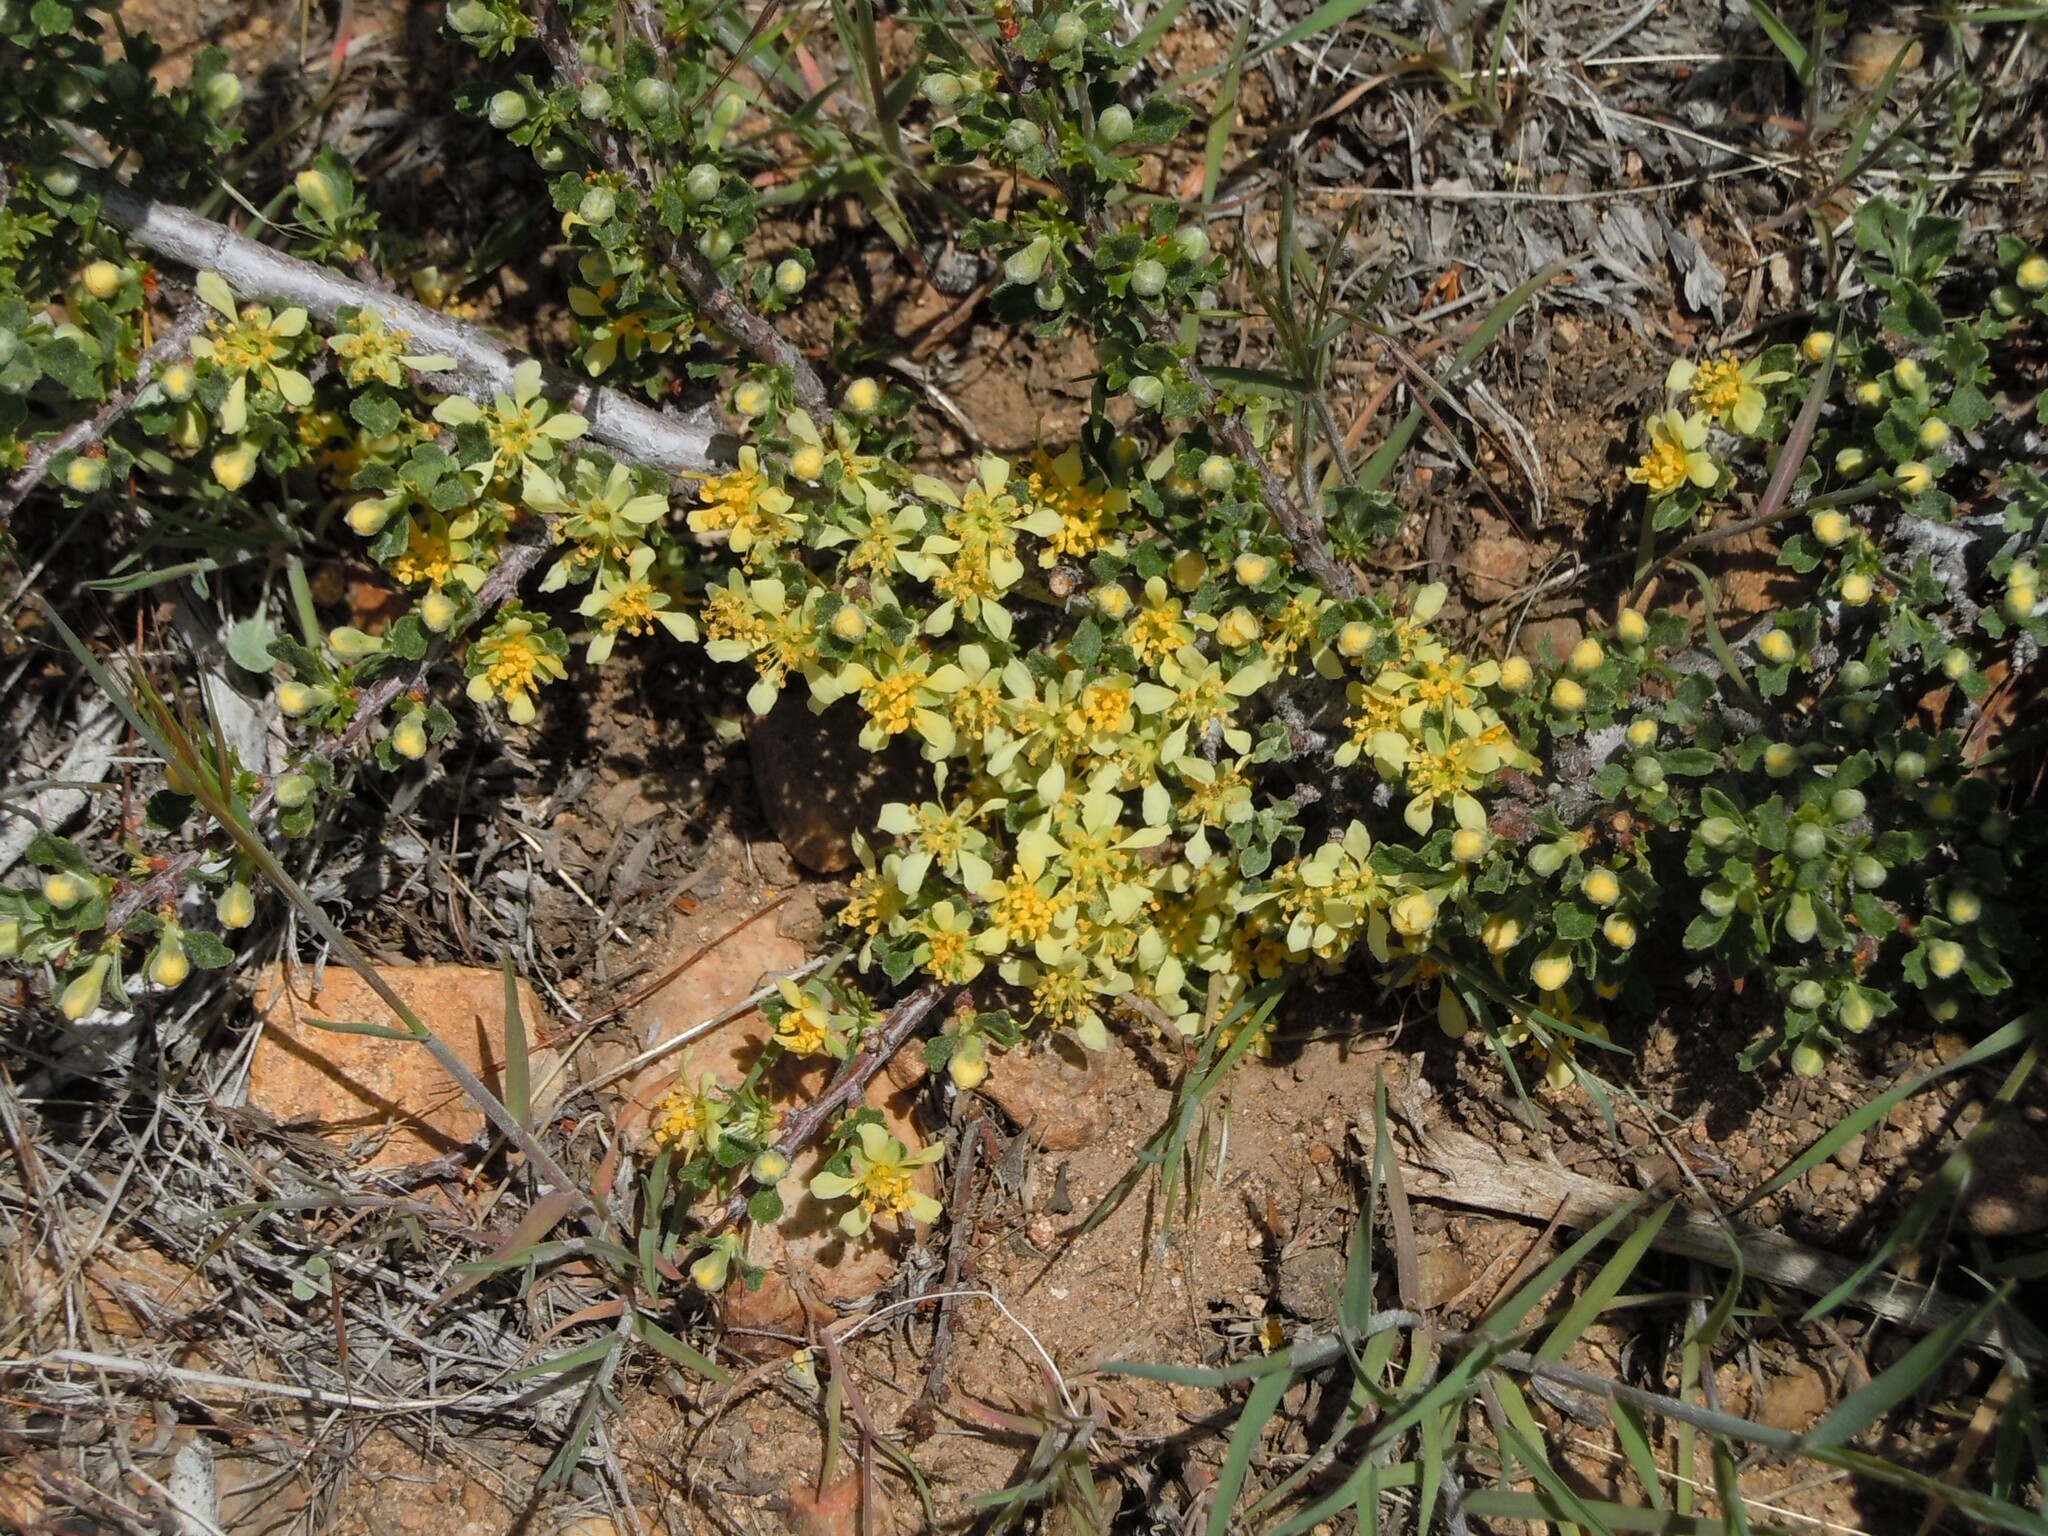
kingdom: Plantae
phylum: Tracheophyta
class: Magnoliopsida
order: Rosales
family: Rosaceae
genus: Purshia
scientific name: Purshia tridentata
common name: Antelope bitterbrush
